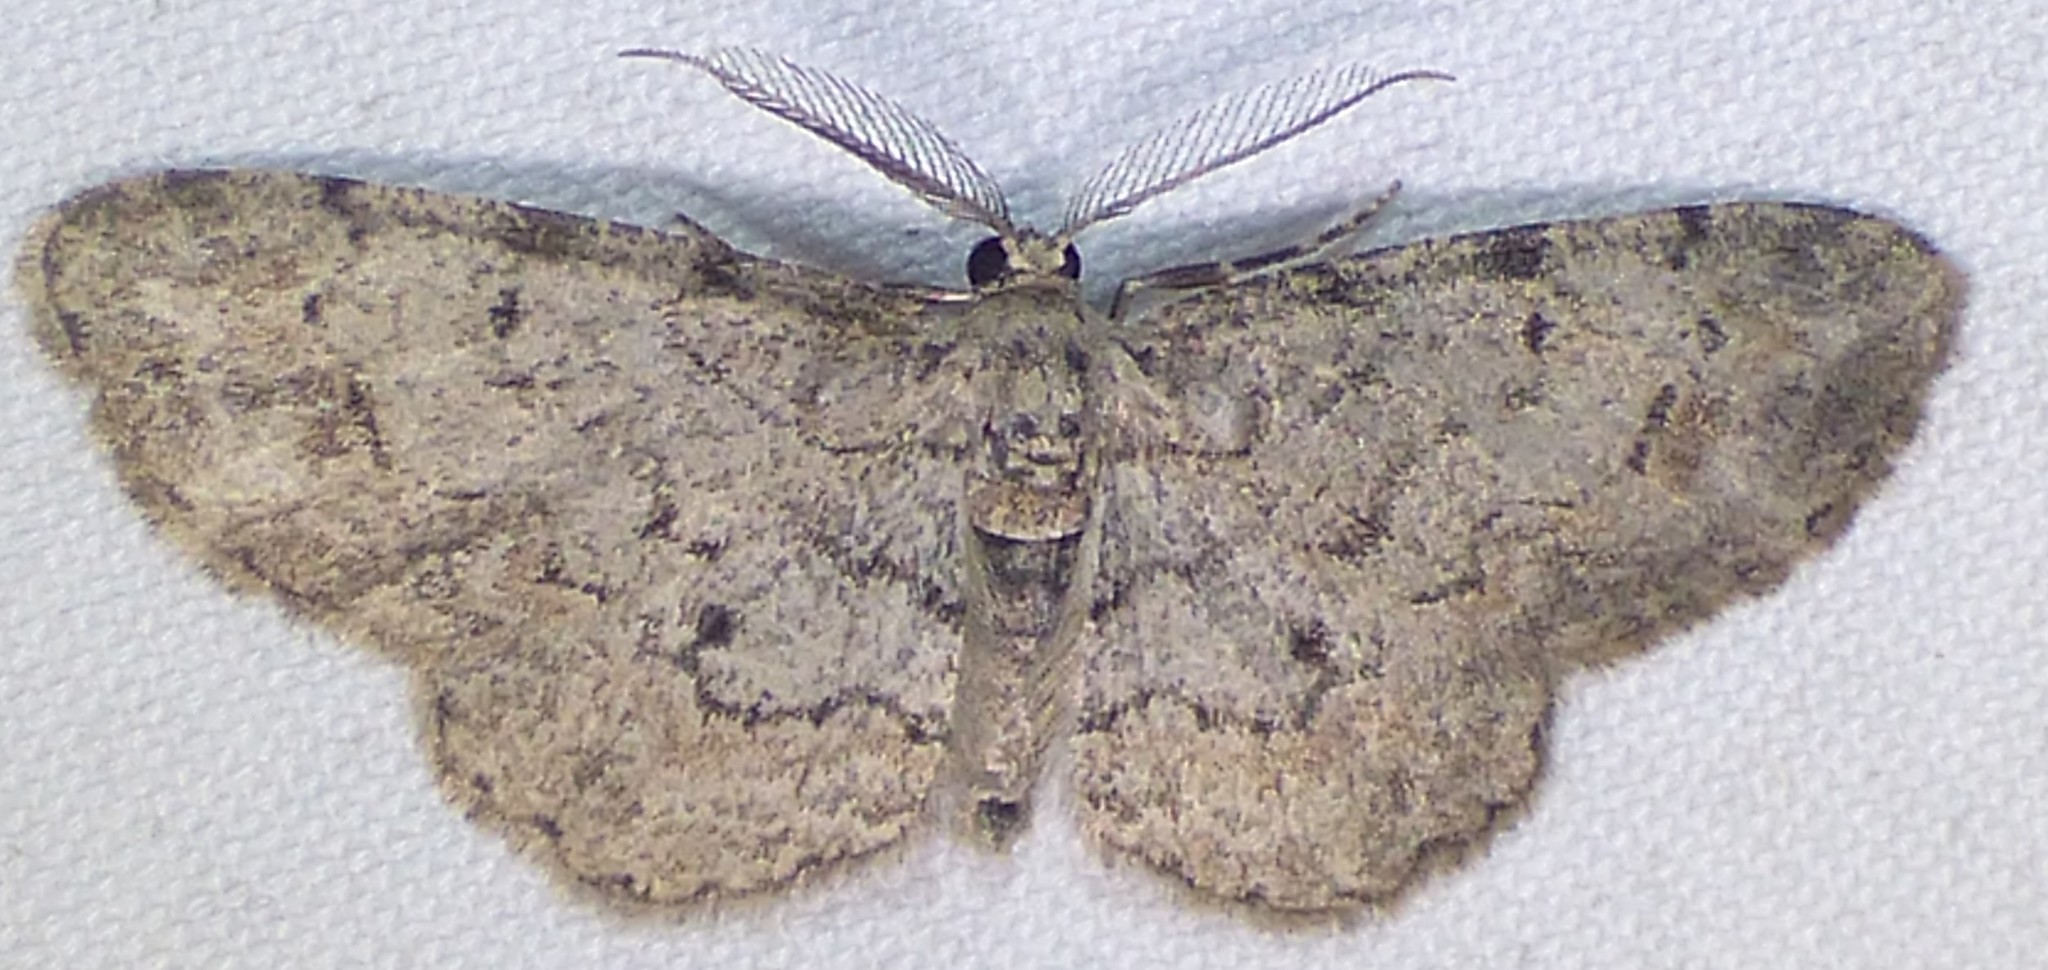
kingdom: Animalia
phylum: Arthropoda
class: Insecta
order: Lepidoptera
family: Geometridae
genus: Glenoides
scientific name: Glenoides texanaria
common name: Texas gray
